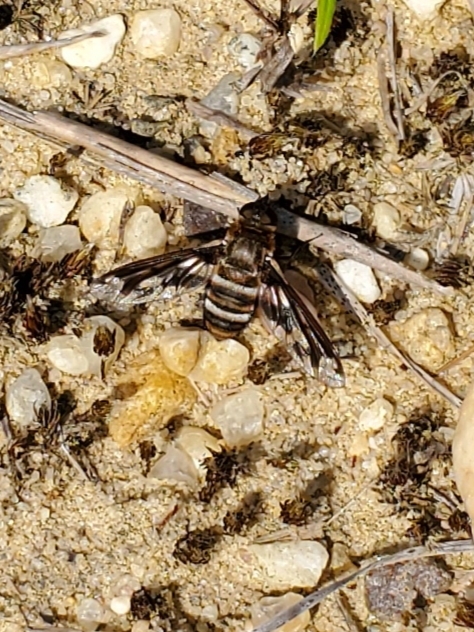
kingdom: Animalia
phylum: Arthropoda
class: Insecta
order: Diptera
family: Bombyliidae
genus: Exoprosopa
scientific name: Exoprosopa fascipennis
